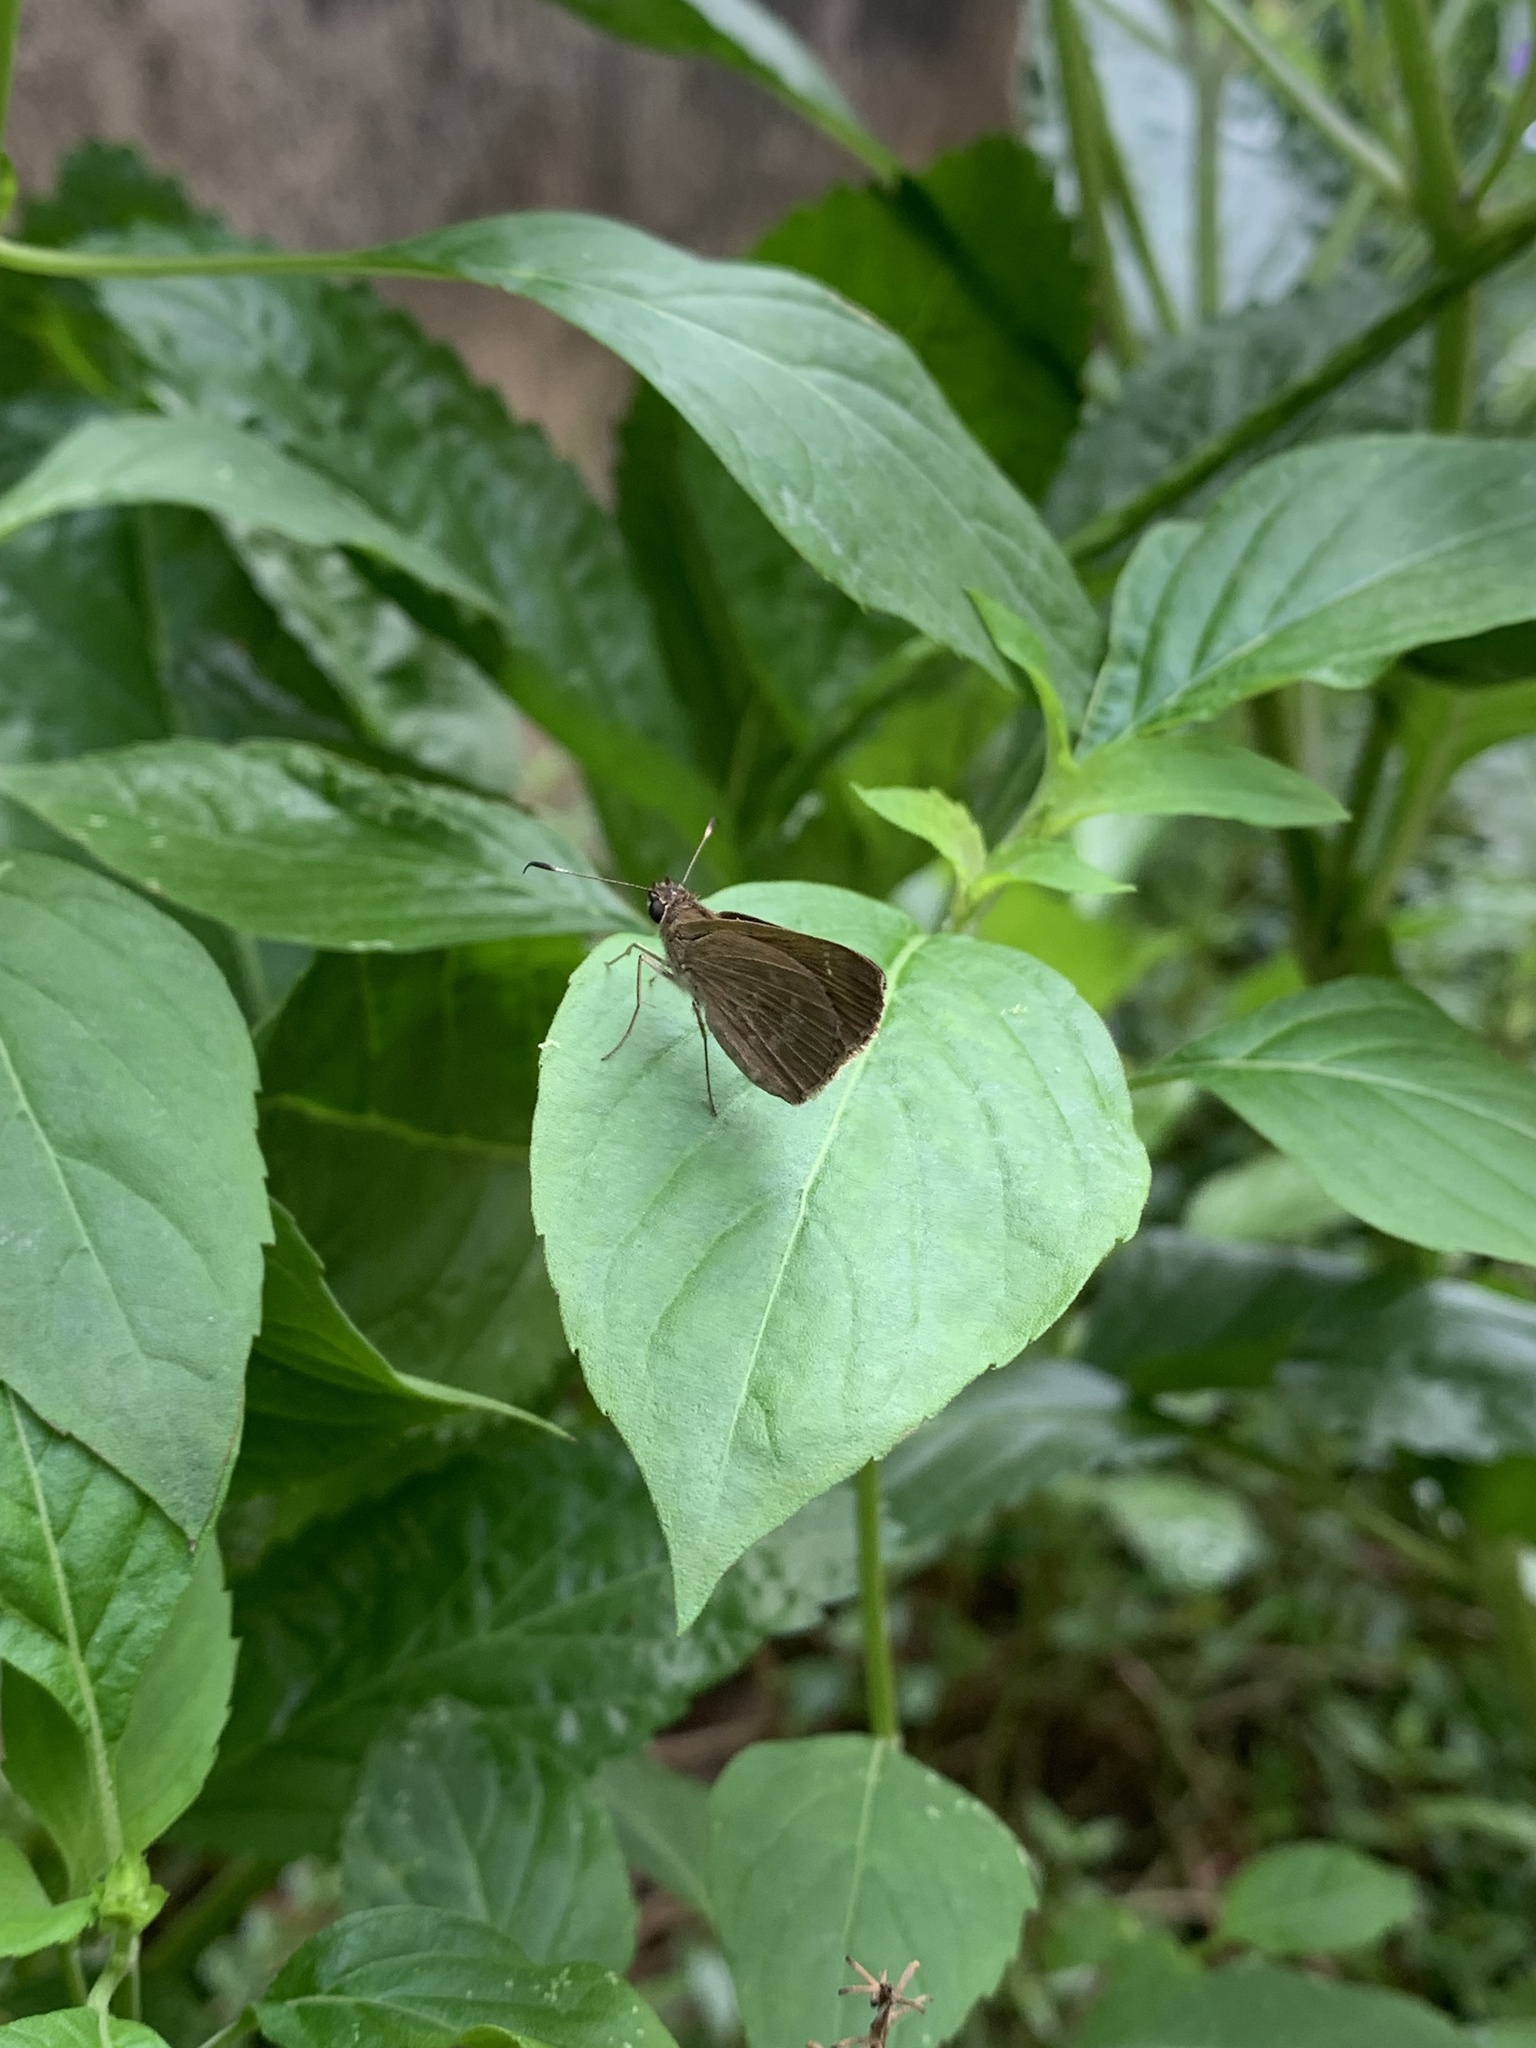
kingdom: Animalia
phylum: Arthropoda
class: Insecta
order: Lepidoptera
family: Hesperiidae
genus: Cymaenes
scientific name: Cymaenes tripunctus
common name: Dingy dotted skipper
